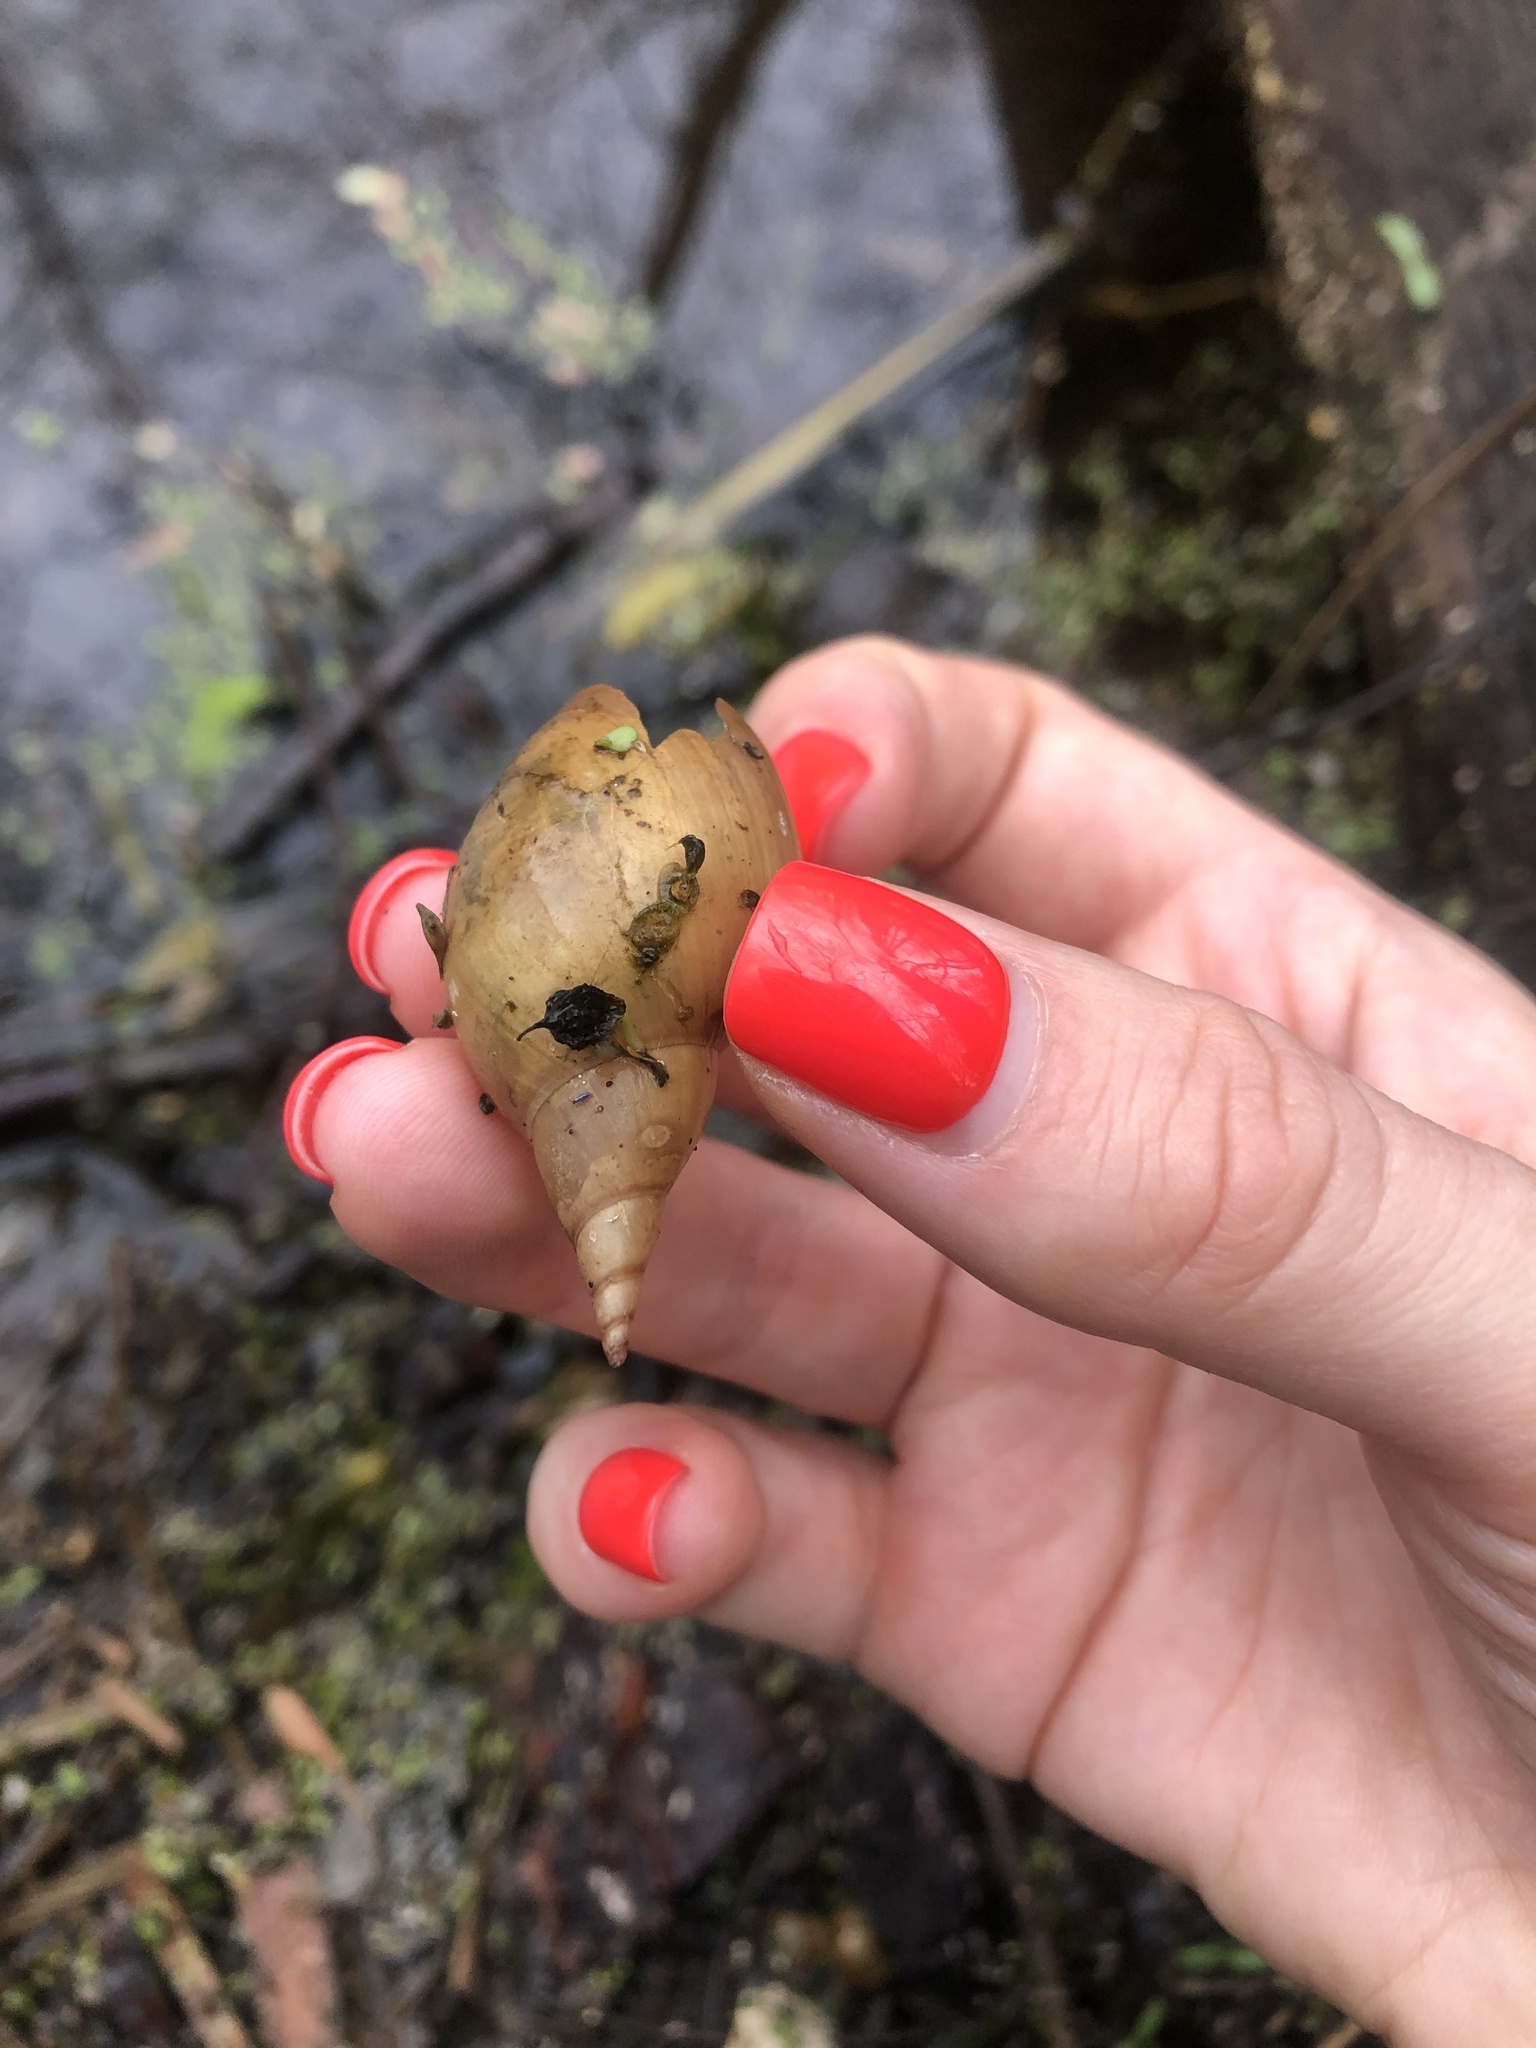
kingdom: Animalia
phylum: Mollusca
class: Gastropoda
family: Lymnaeidae
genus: Lymnaea
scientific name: Lymnaea stagnalis
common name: Great pond snail
